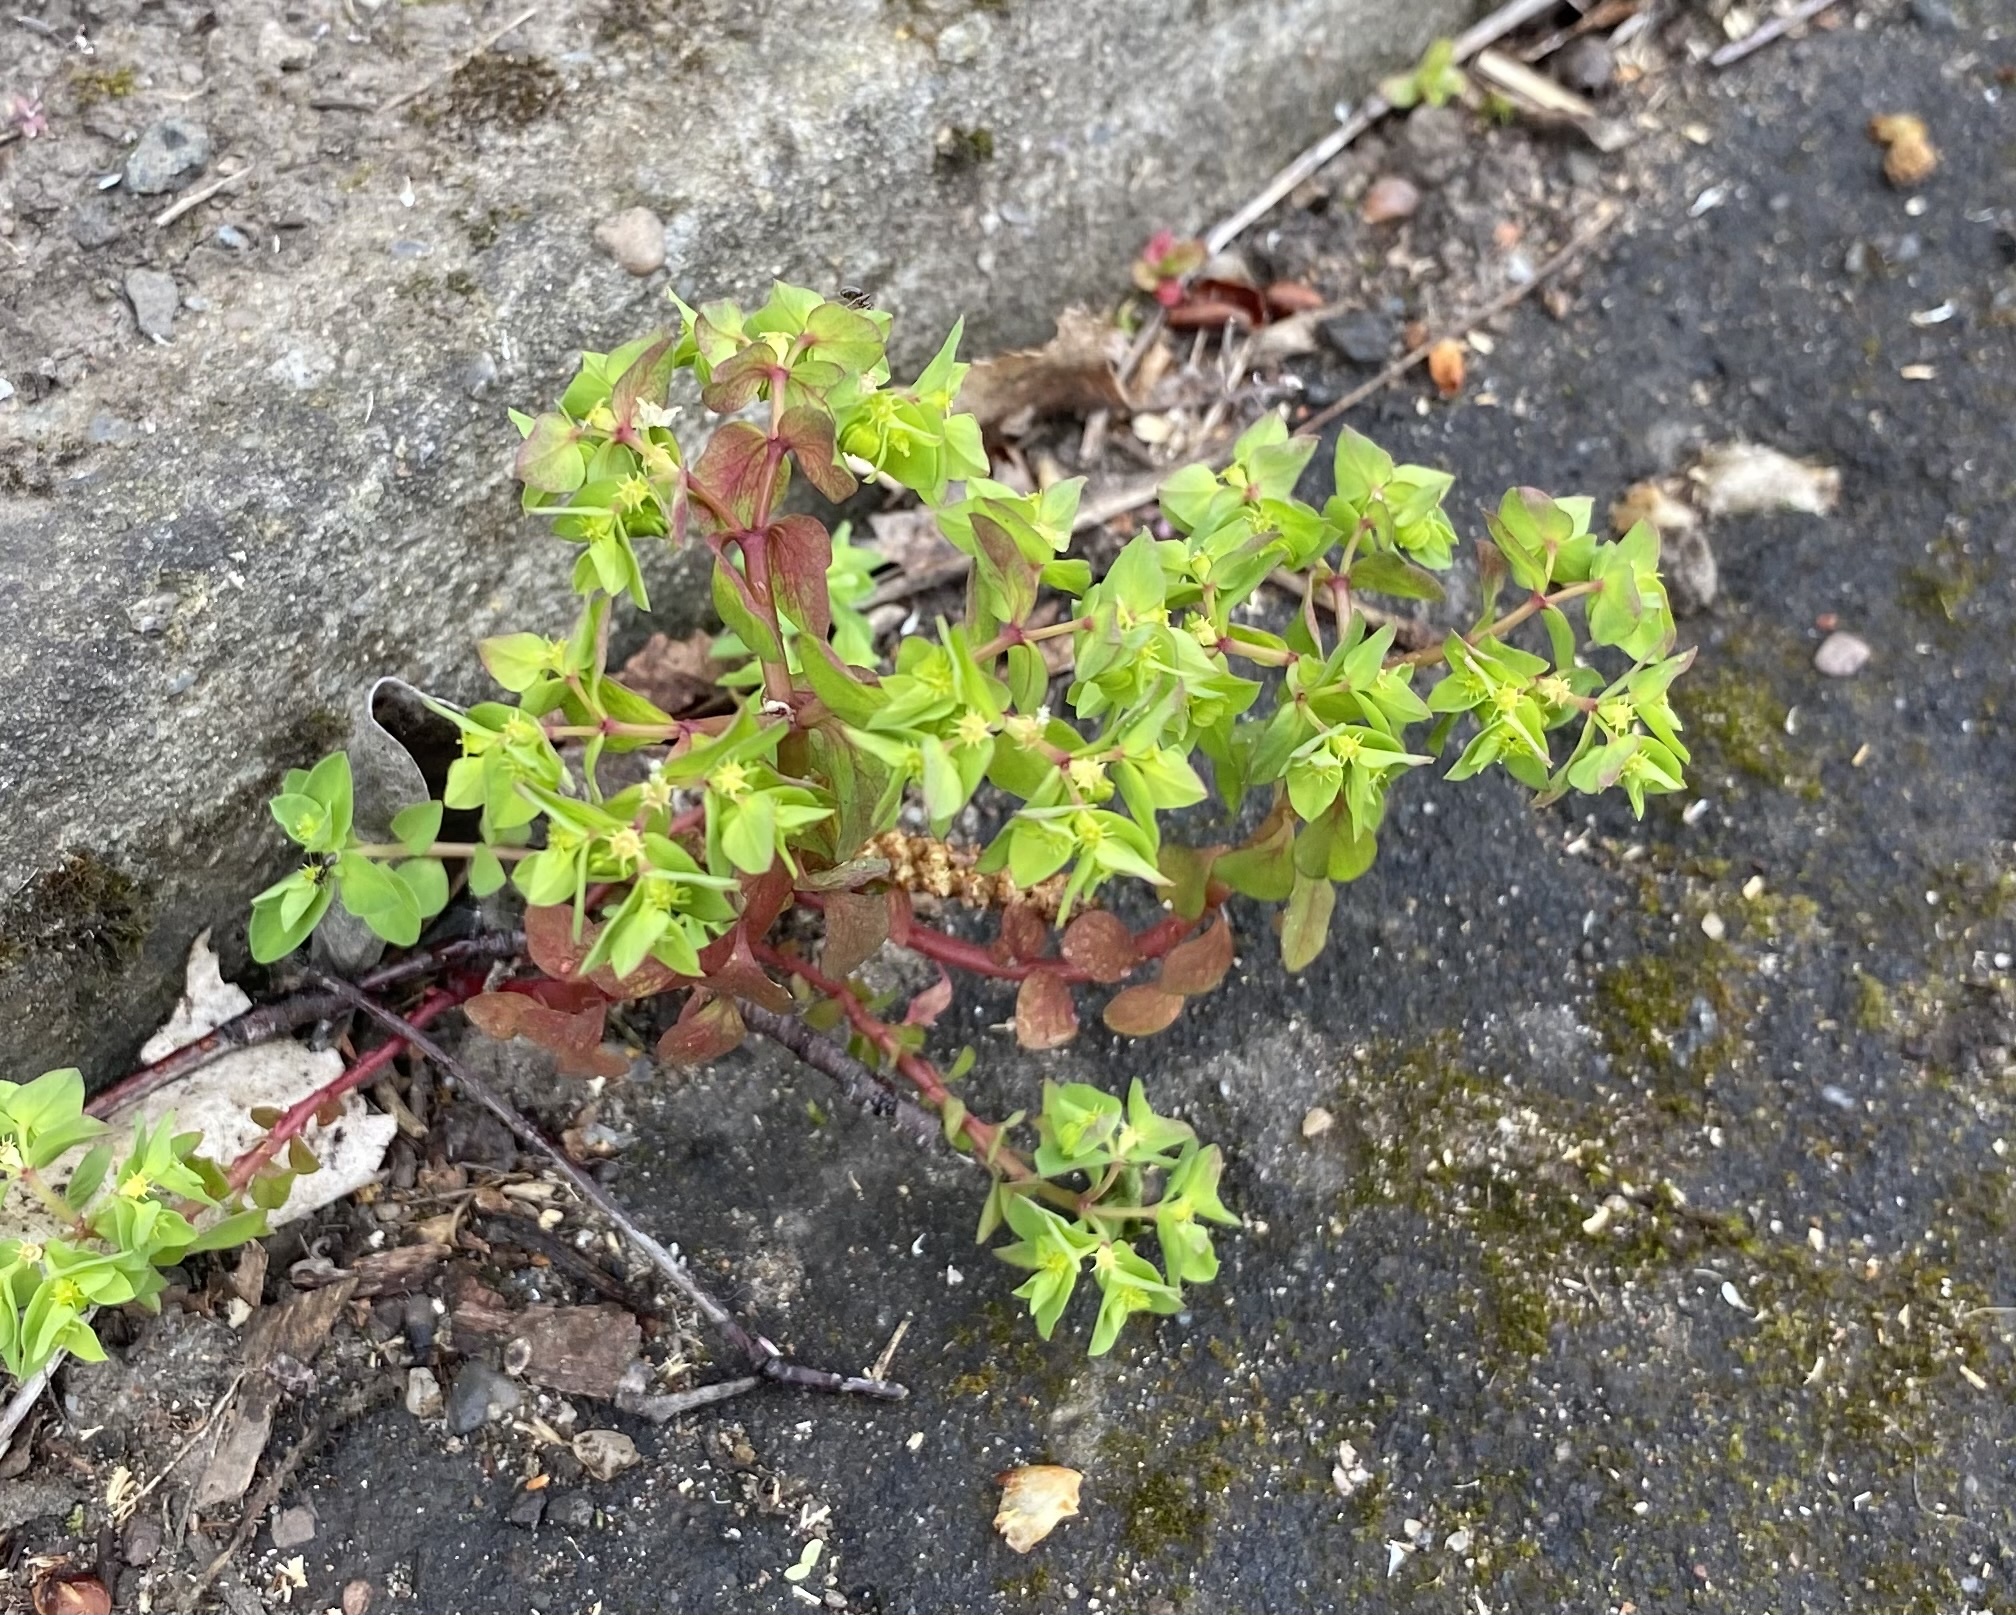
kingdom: Plantae
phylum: Tracheophyta
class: Magnoliopsida
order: Malpighiales
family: Euphorbiaceae
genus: Euphorbia
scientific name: Euphorbia peplus
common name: Petty spurge
